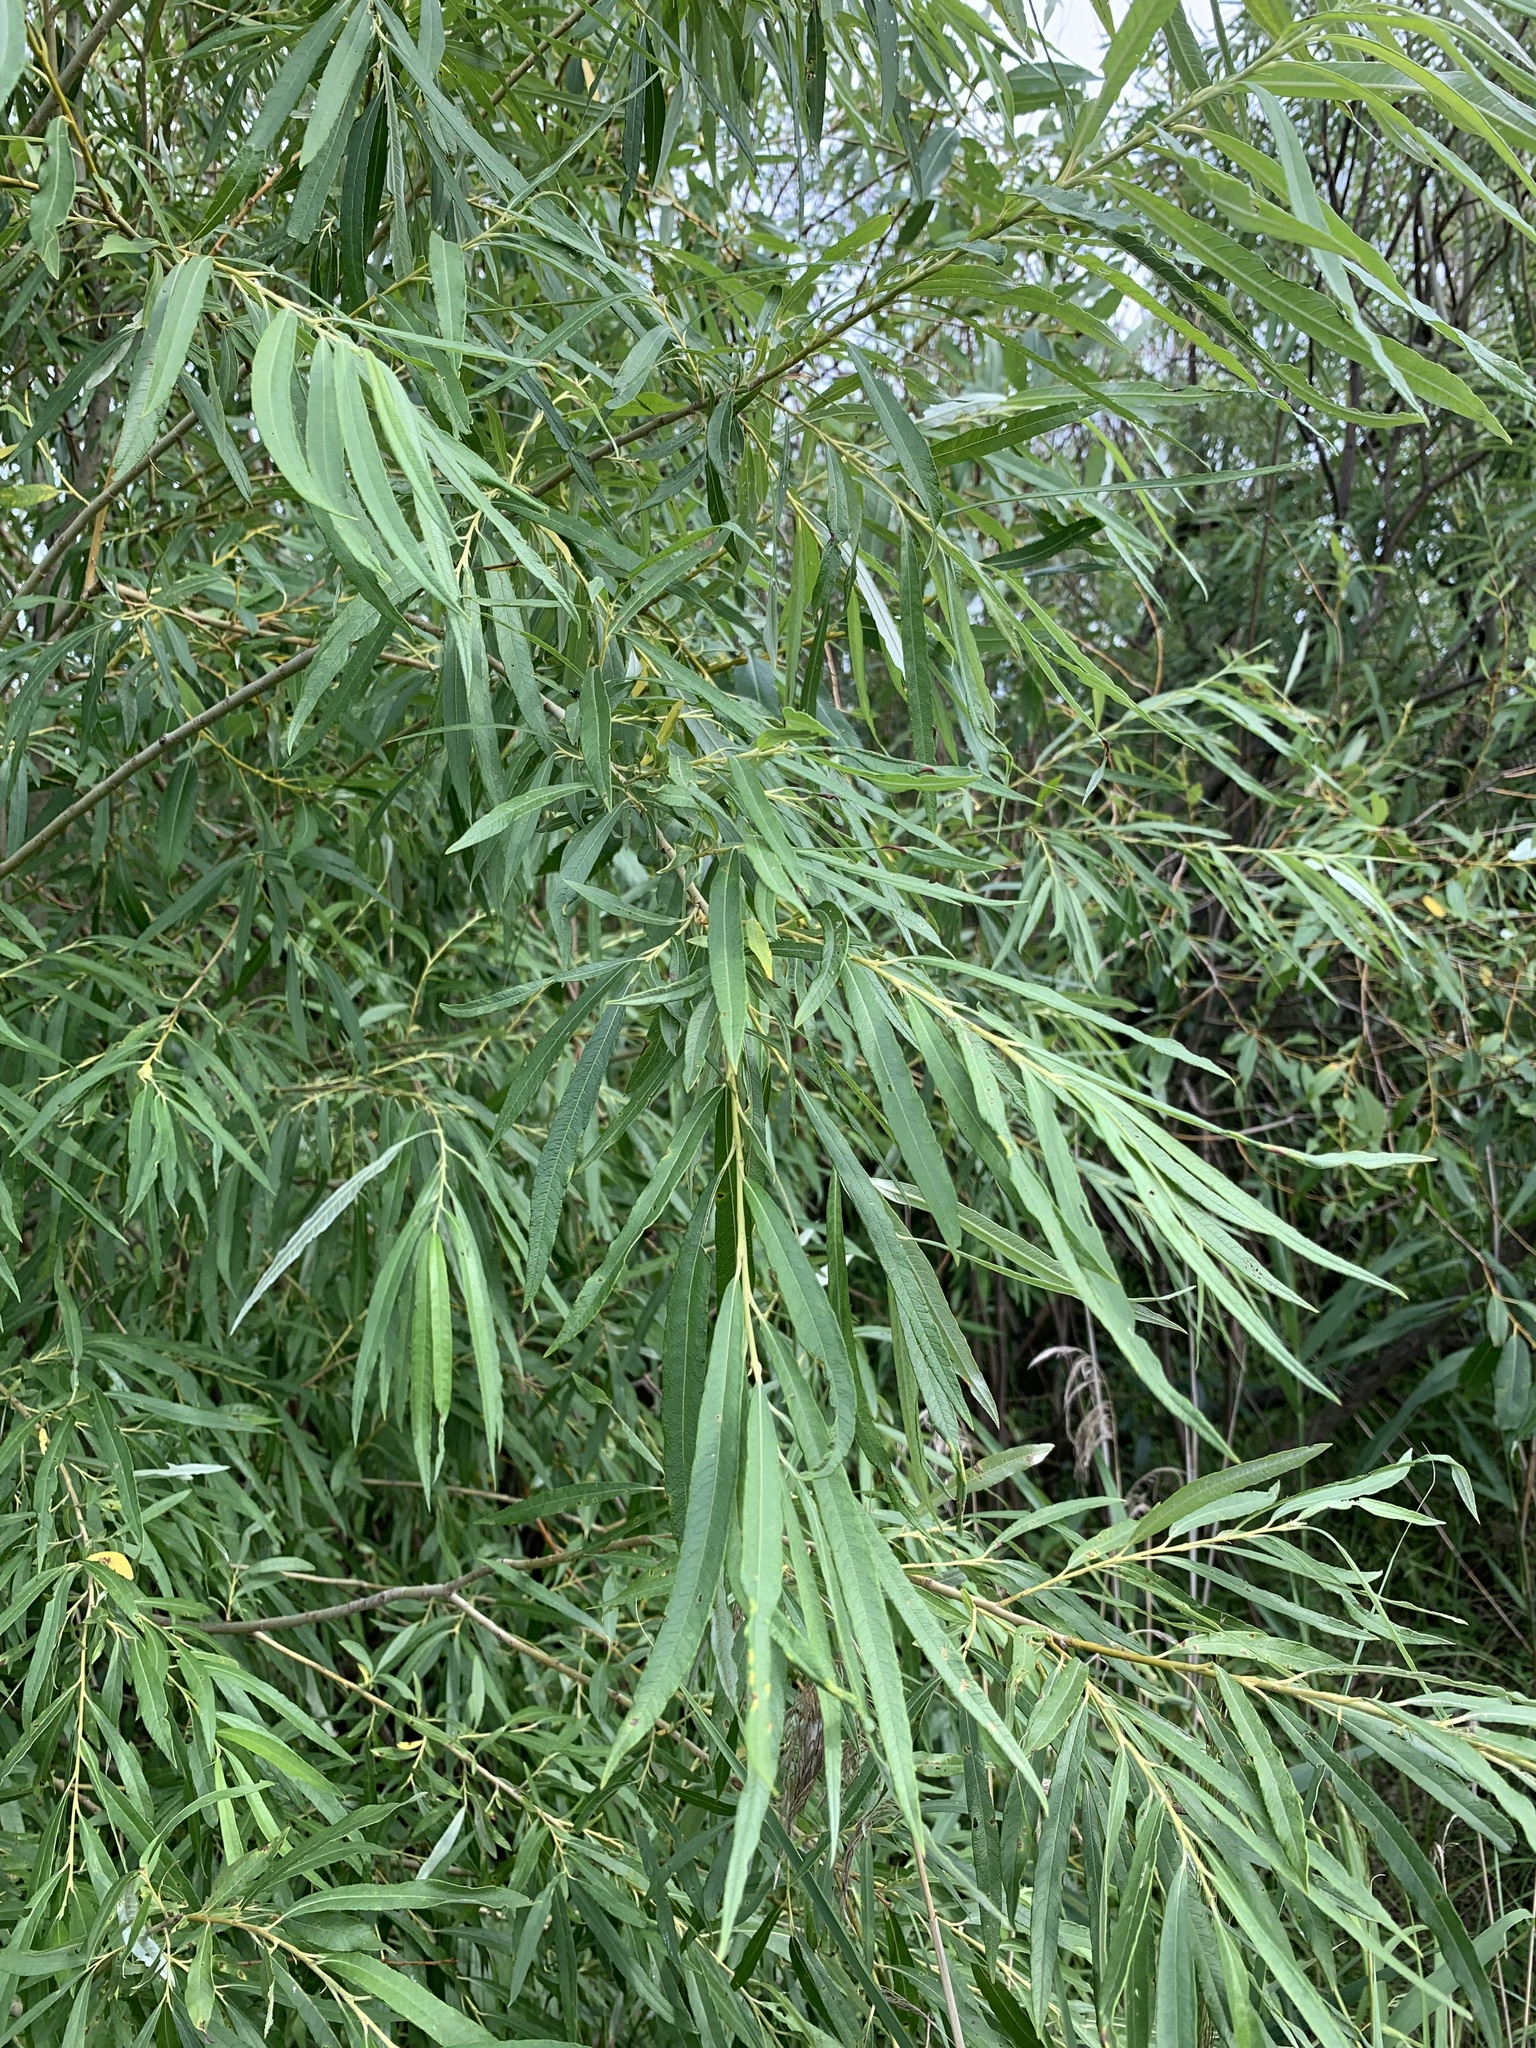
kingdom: Plantae
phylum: Tracheophyta
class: Magnoliopsida
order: Malpighiales
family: Salicaceae
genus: Salix
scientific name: Salix viminalis
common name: Osier
